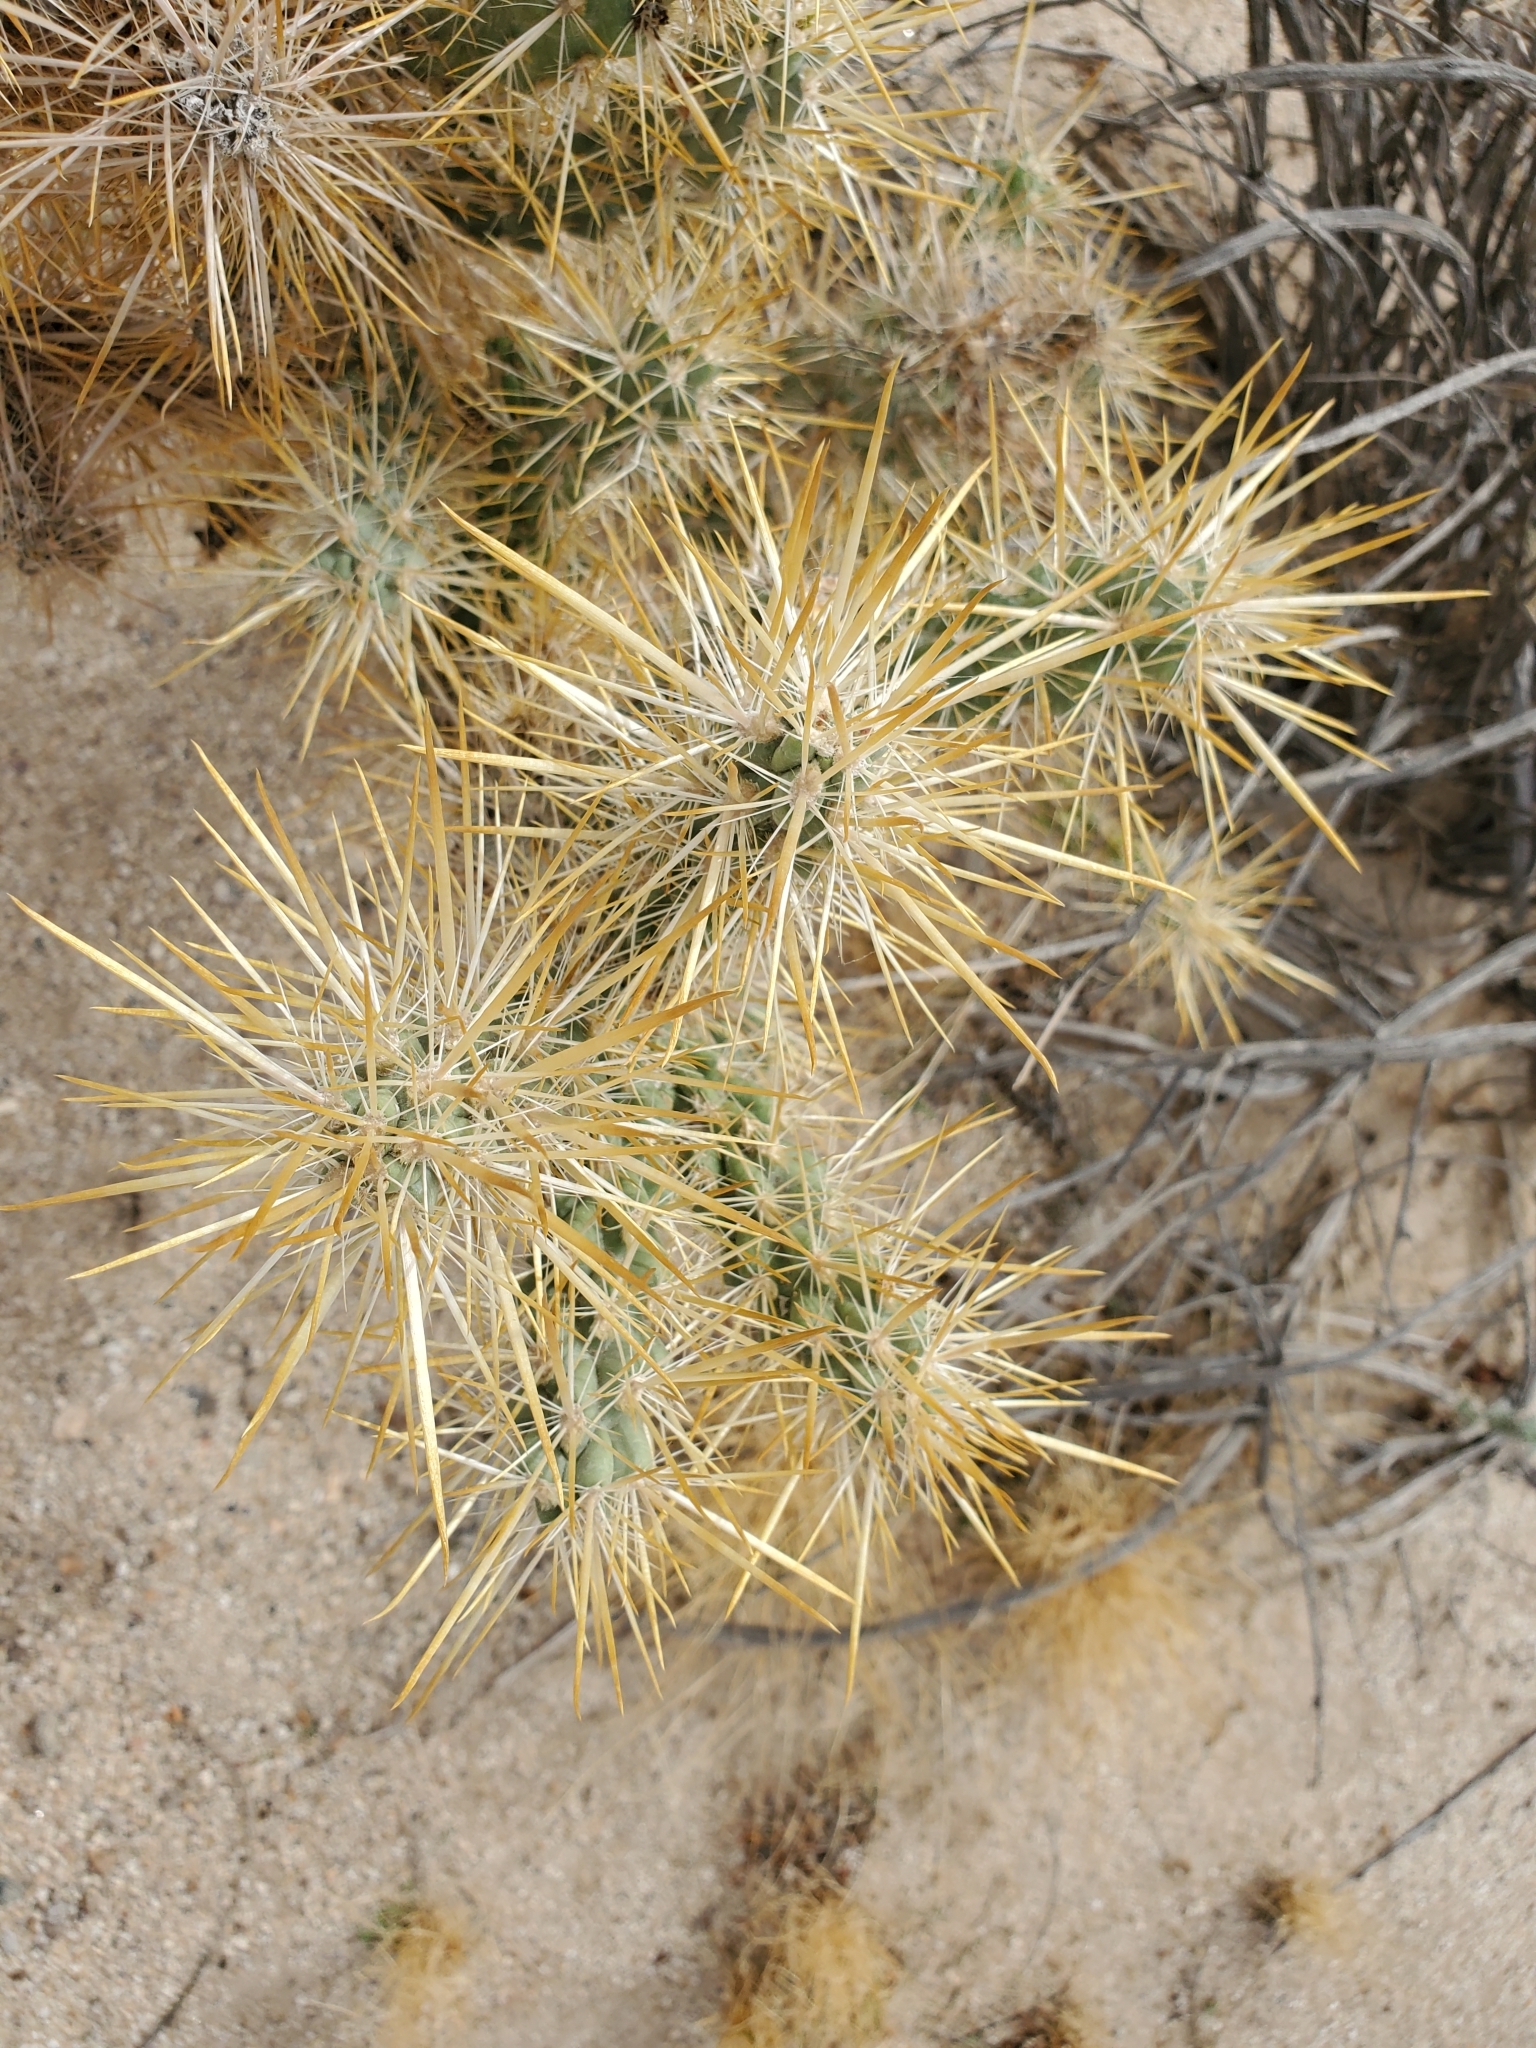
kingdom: Plantae
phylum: Tracheophyta
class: Magnoliopsida
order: Caryophyllales
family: Cactaceae
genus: Cylindropuntia
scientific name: Cylindropuntia echinocarpa
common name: Ground cholla
